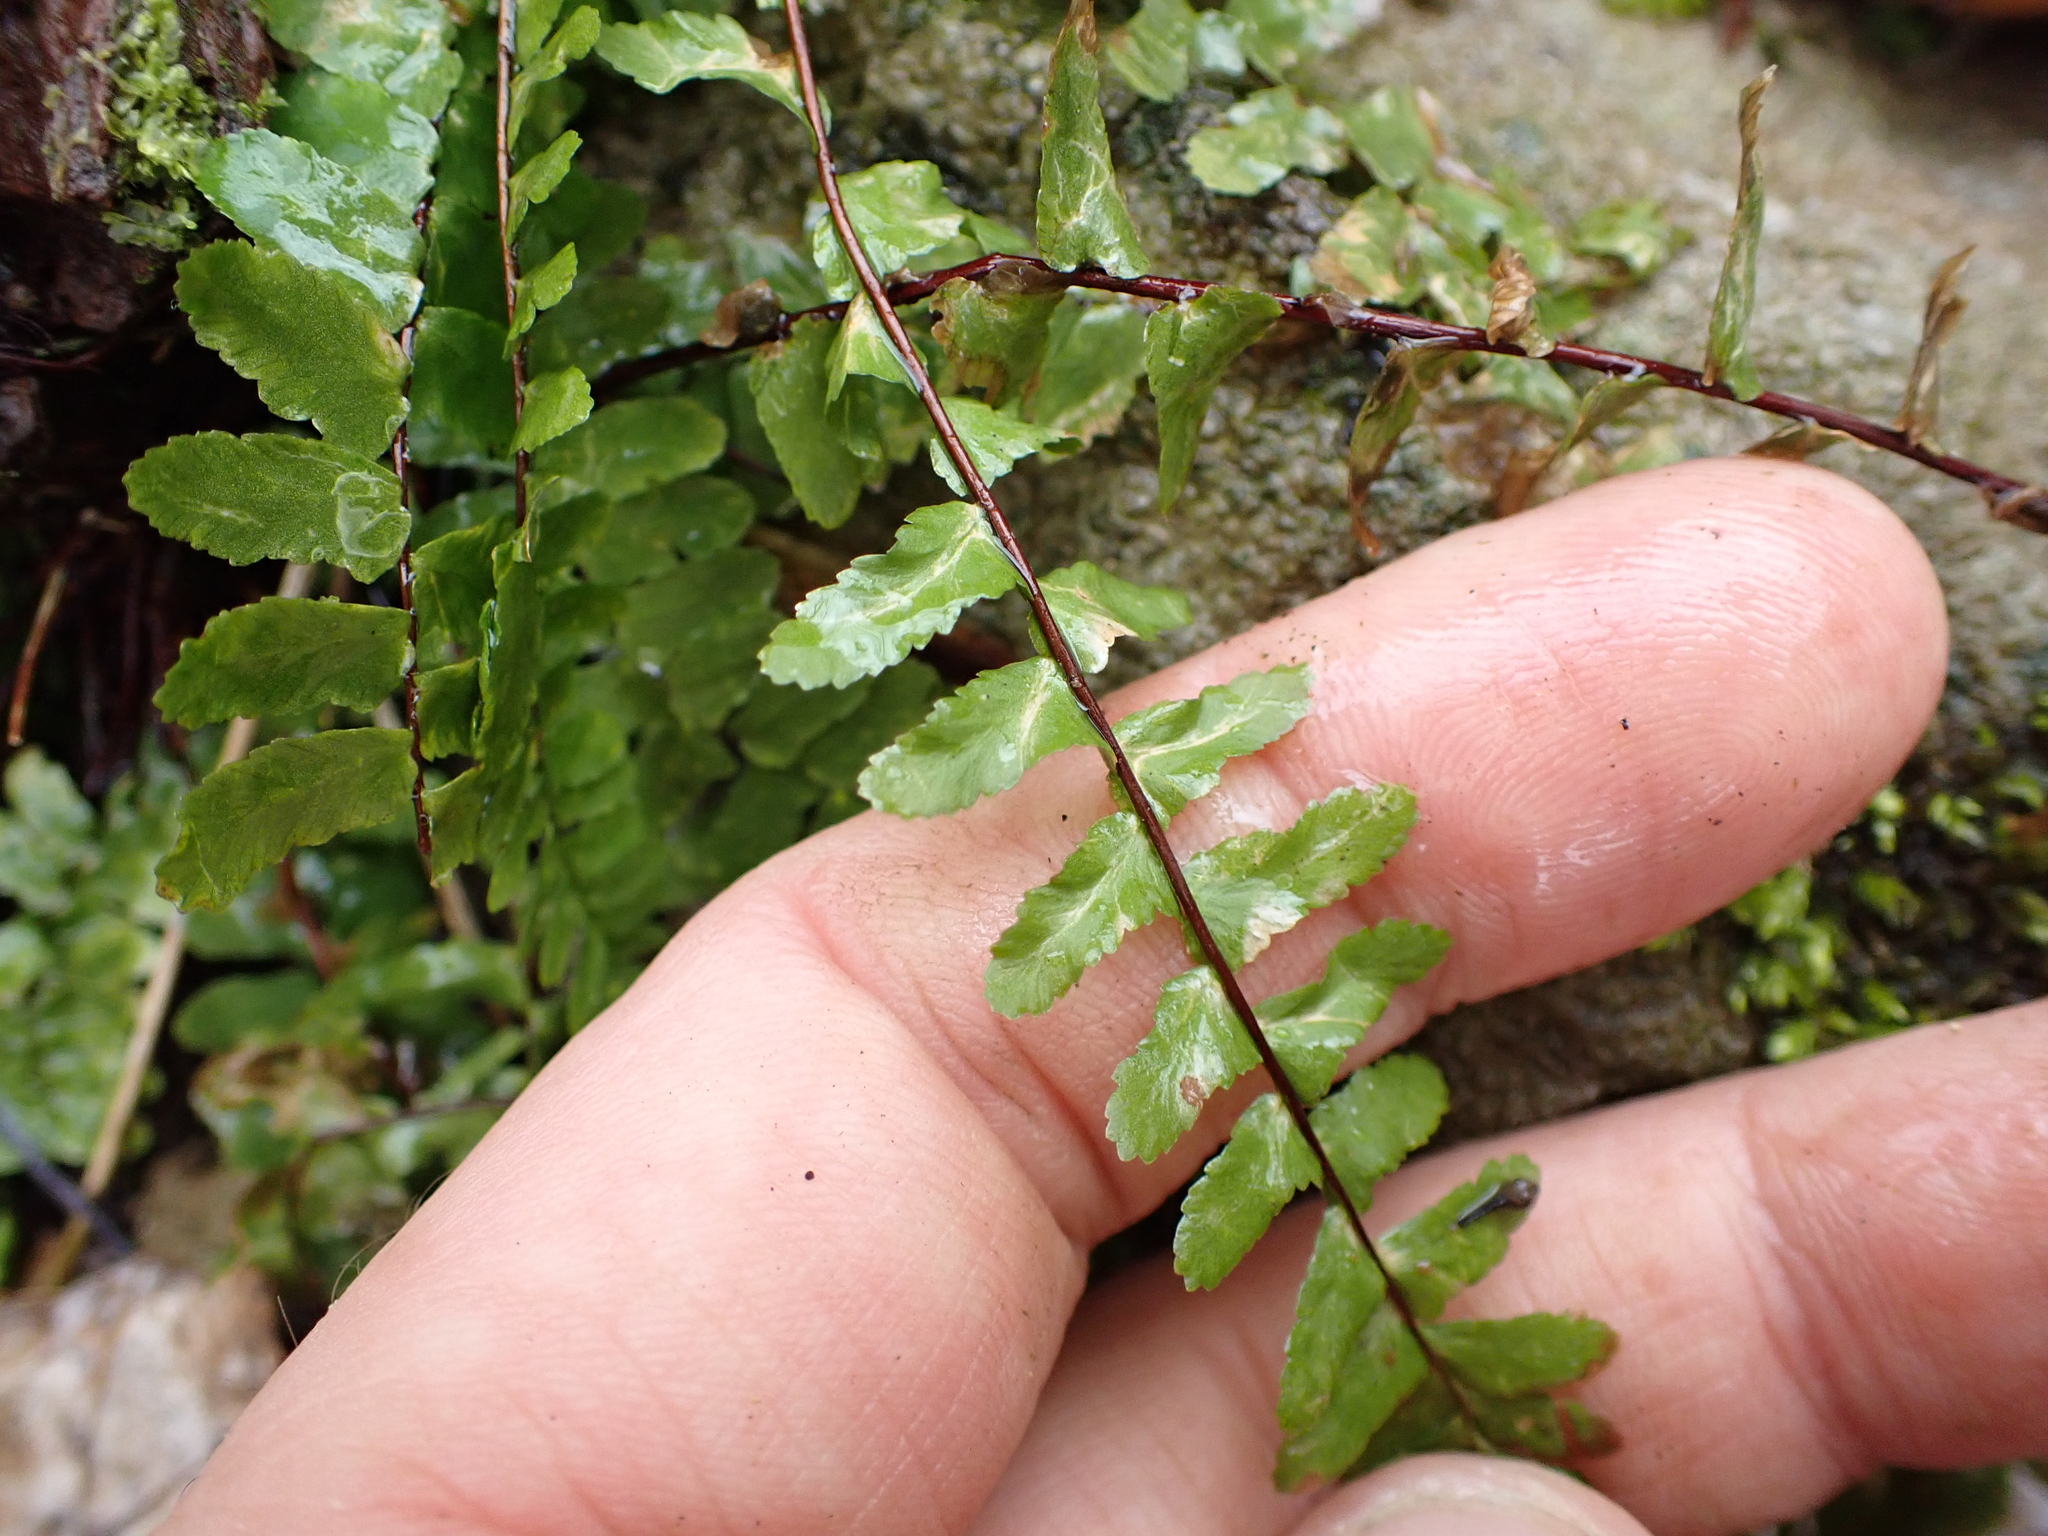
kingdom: Plantae
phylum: Tracheophyta
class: Polypodiopsida
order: Polypodiales
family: Aspleniaceae
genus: Asplenium
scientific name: Asplenium platyneuron
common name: Ebony spleenwort
